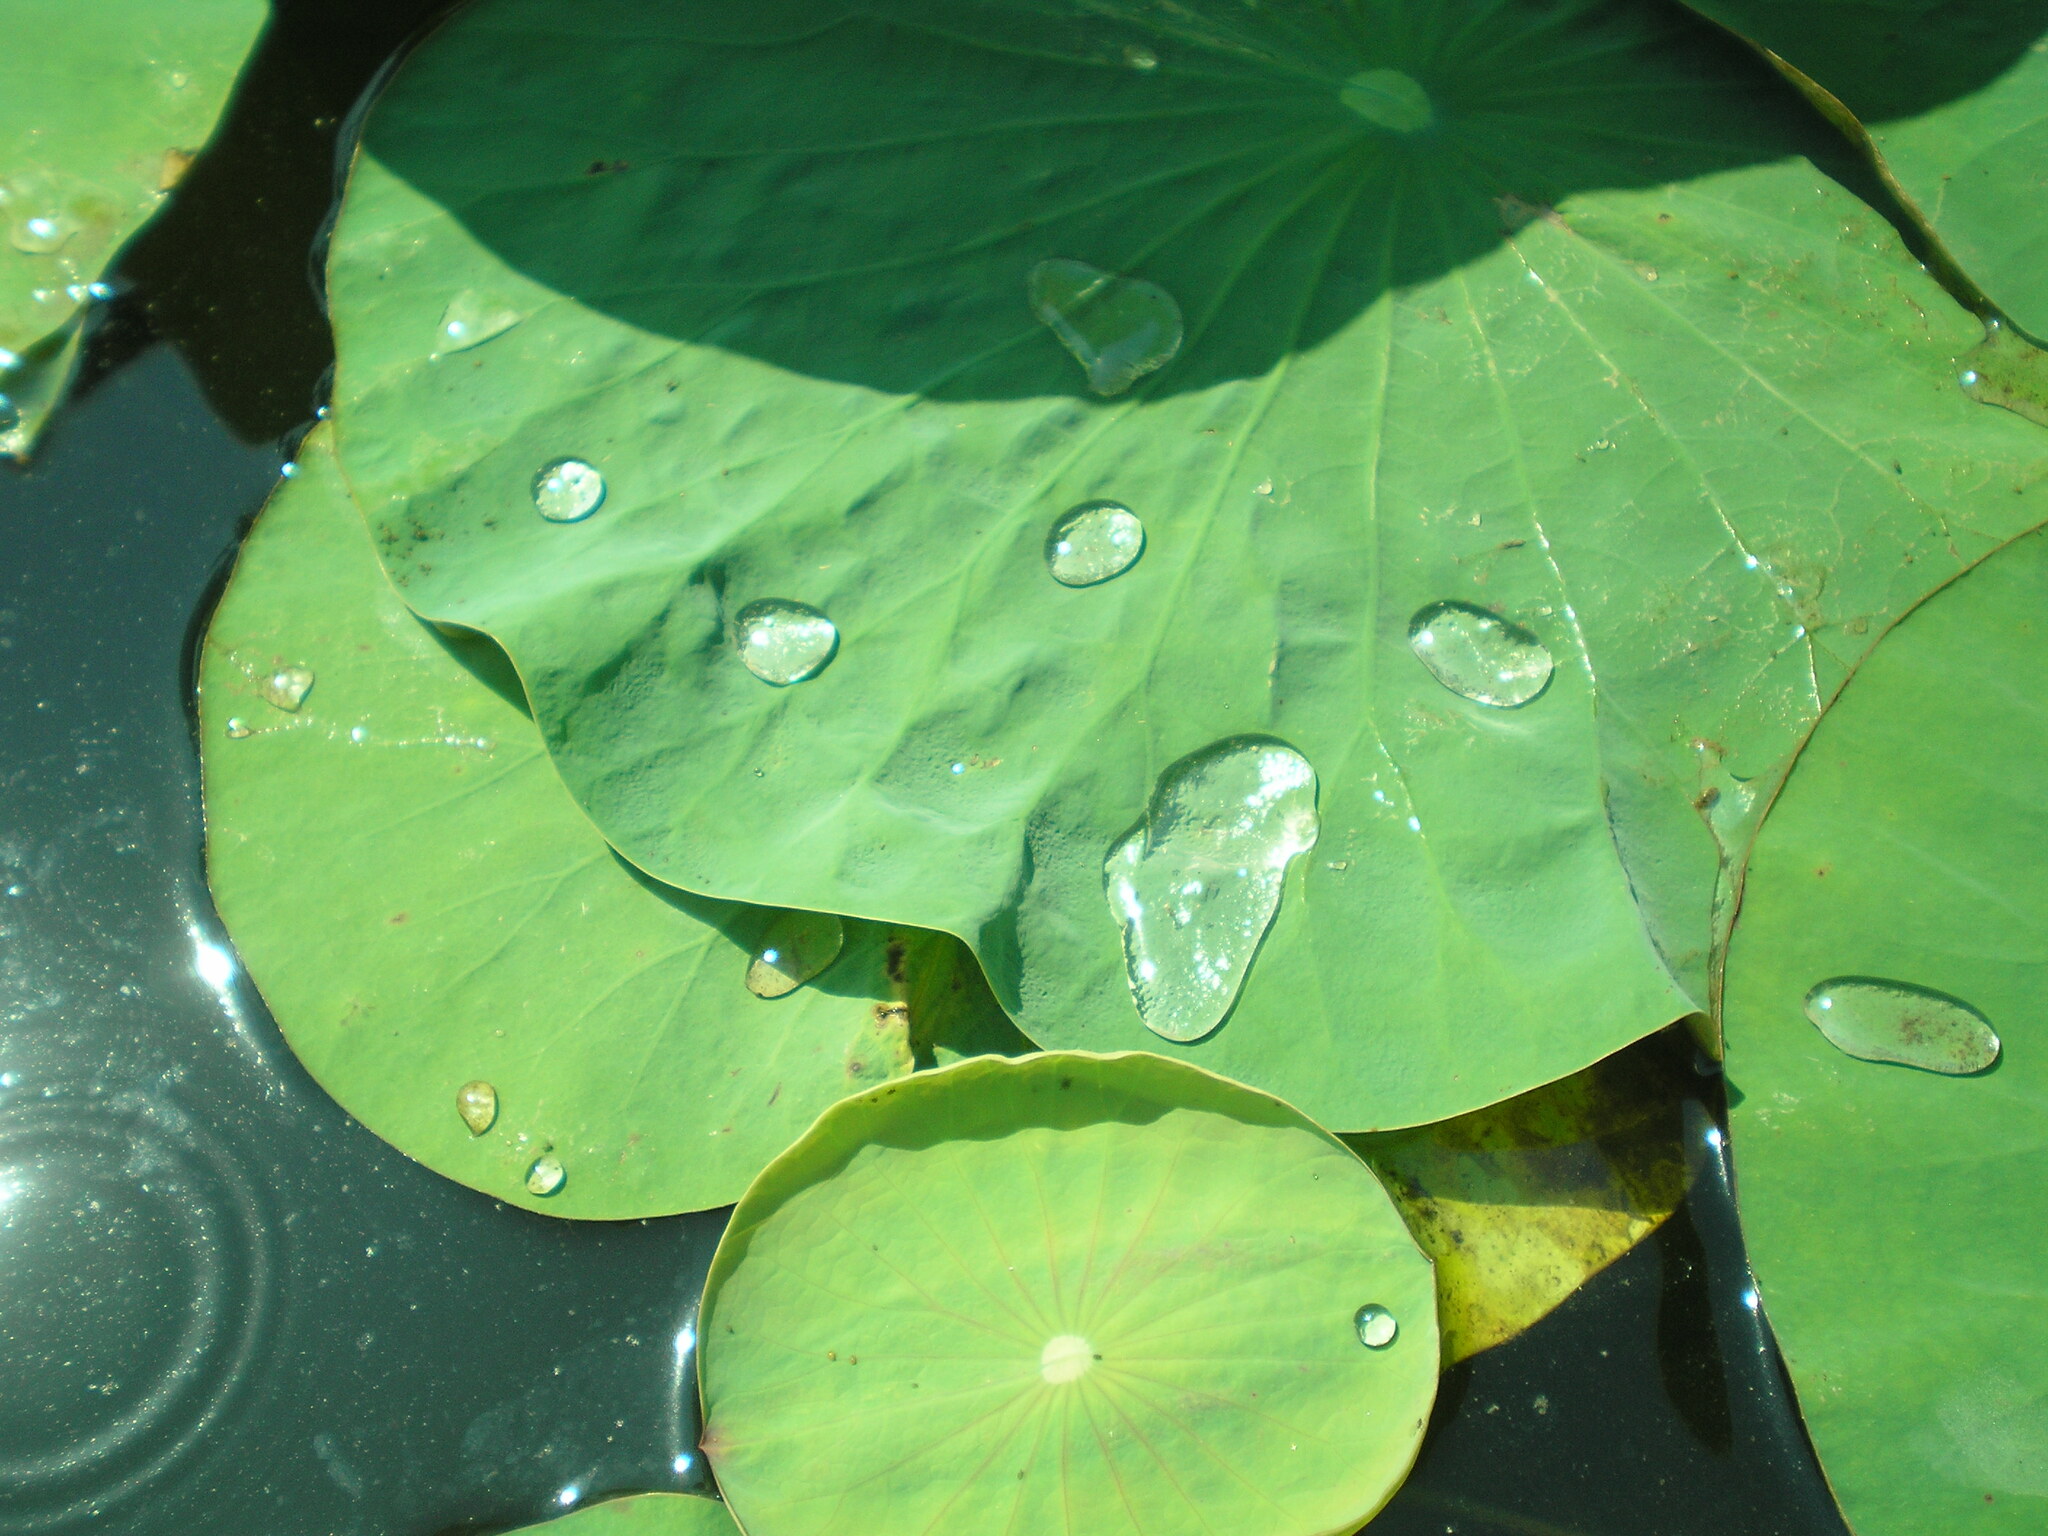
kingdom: Plantae
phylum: Tracheophyta
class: Magnoliopsida
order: Proteales
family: Nelumbonaceae
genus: Nelumbo
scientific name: Nelumbo nucifera
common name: Sacred lotus
